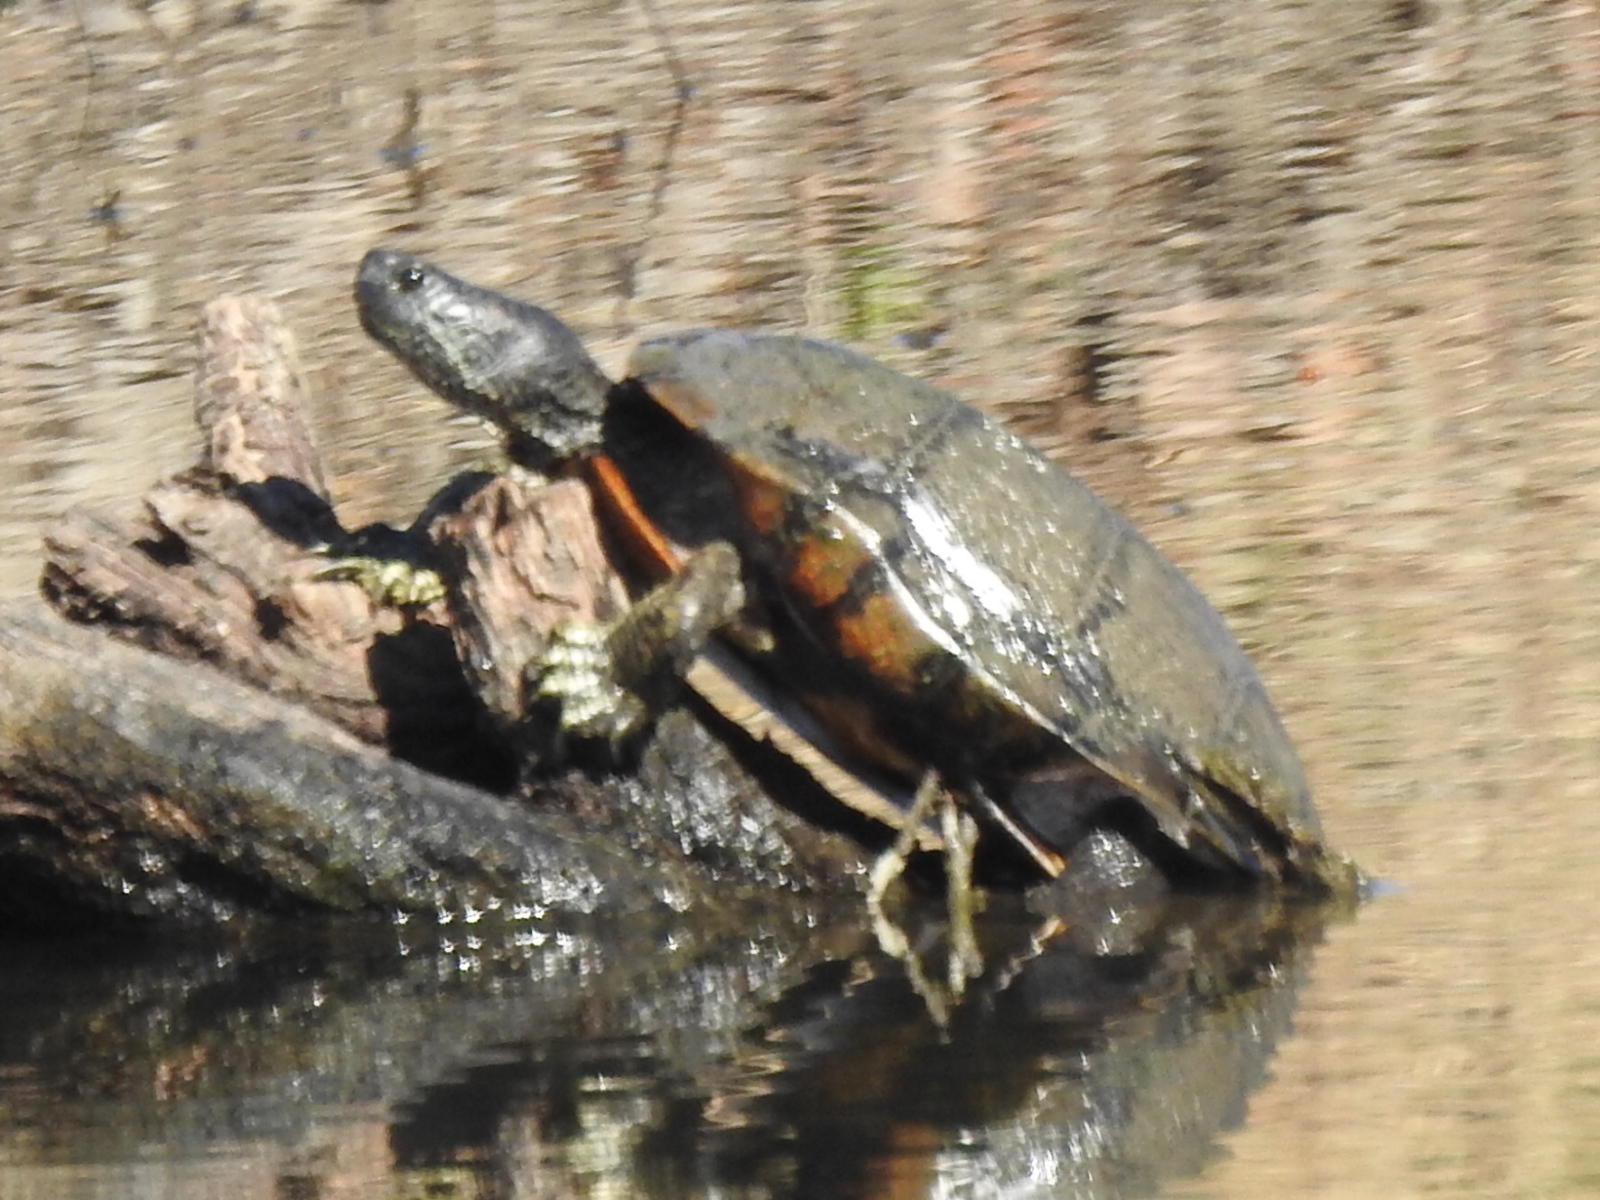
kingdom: Animalia
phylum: Chordata
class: Testudines
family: Emydidae
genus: Trachemys
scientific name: Trachemys scripta
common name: Slider
